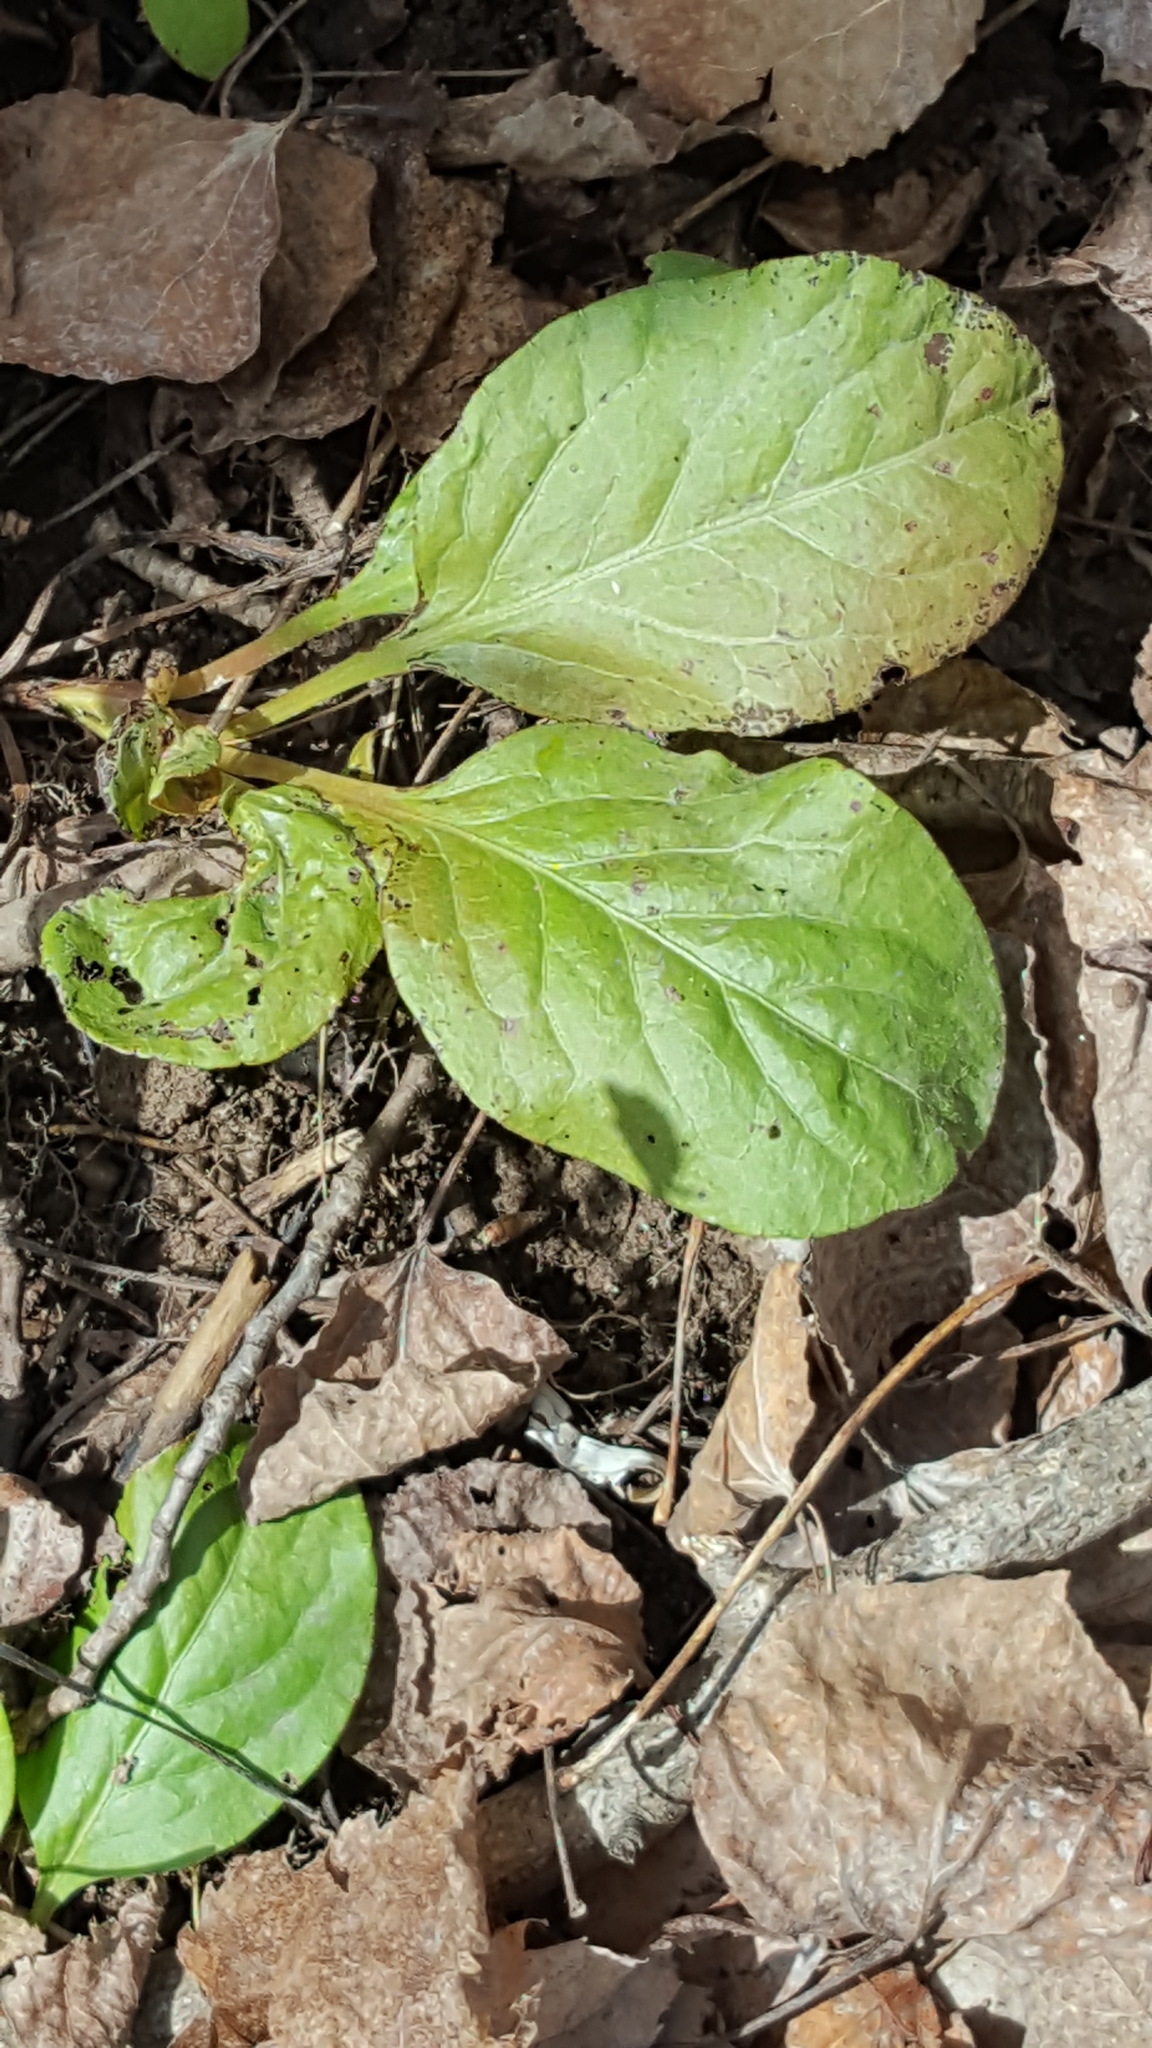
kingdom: Plantae
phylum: Tracheophyta
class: Magnoliopsida
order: Ericales
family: Ericaceae
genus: Pyrola
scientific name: Pyrola elliptica
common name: Shinleaf
